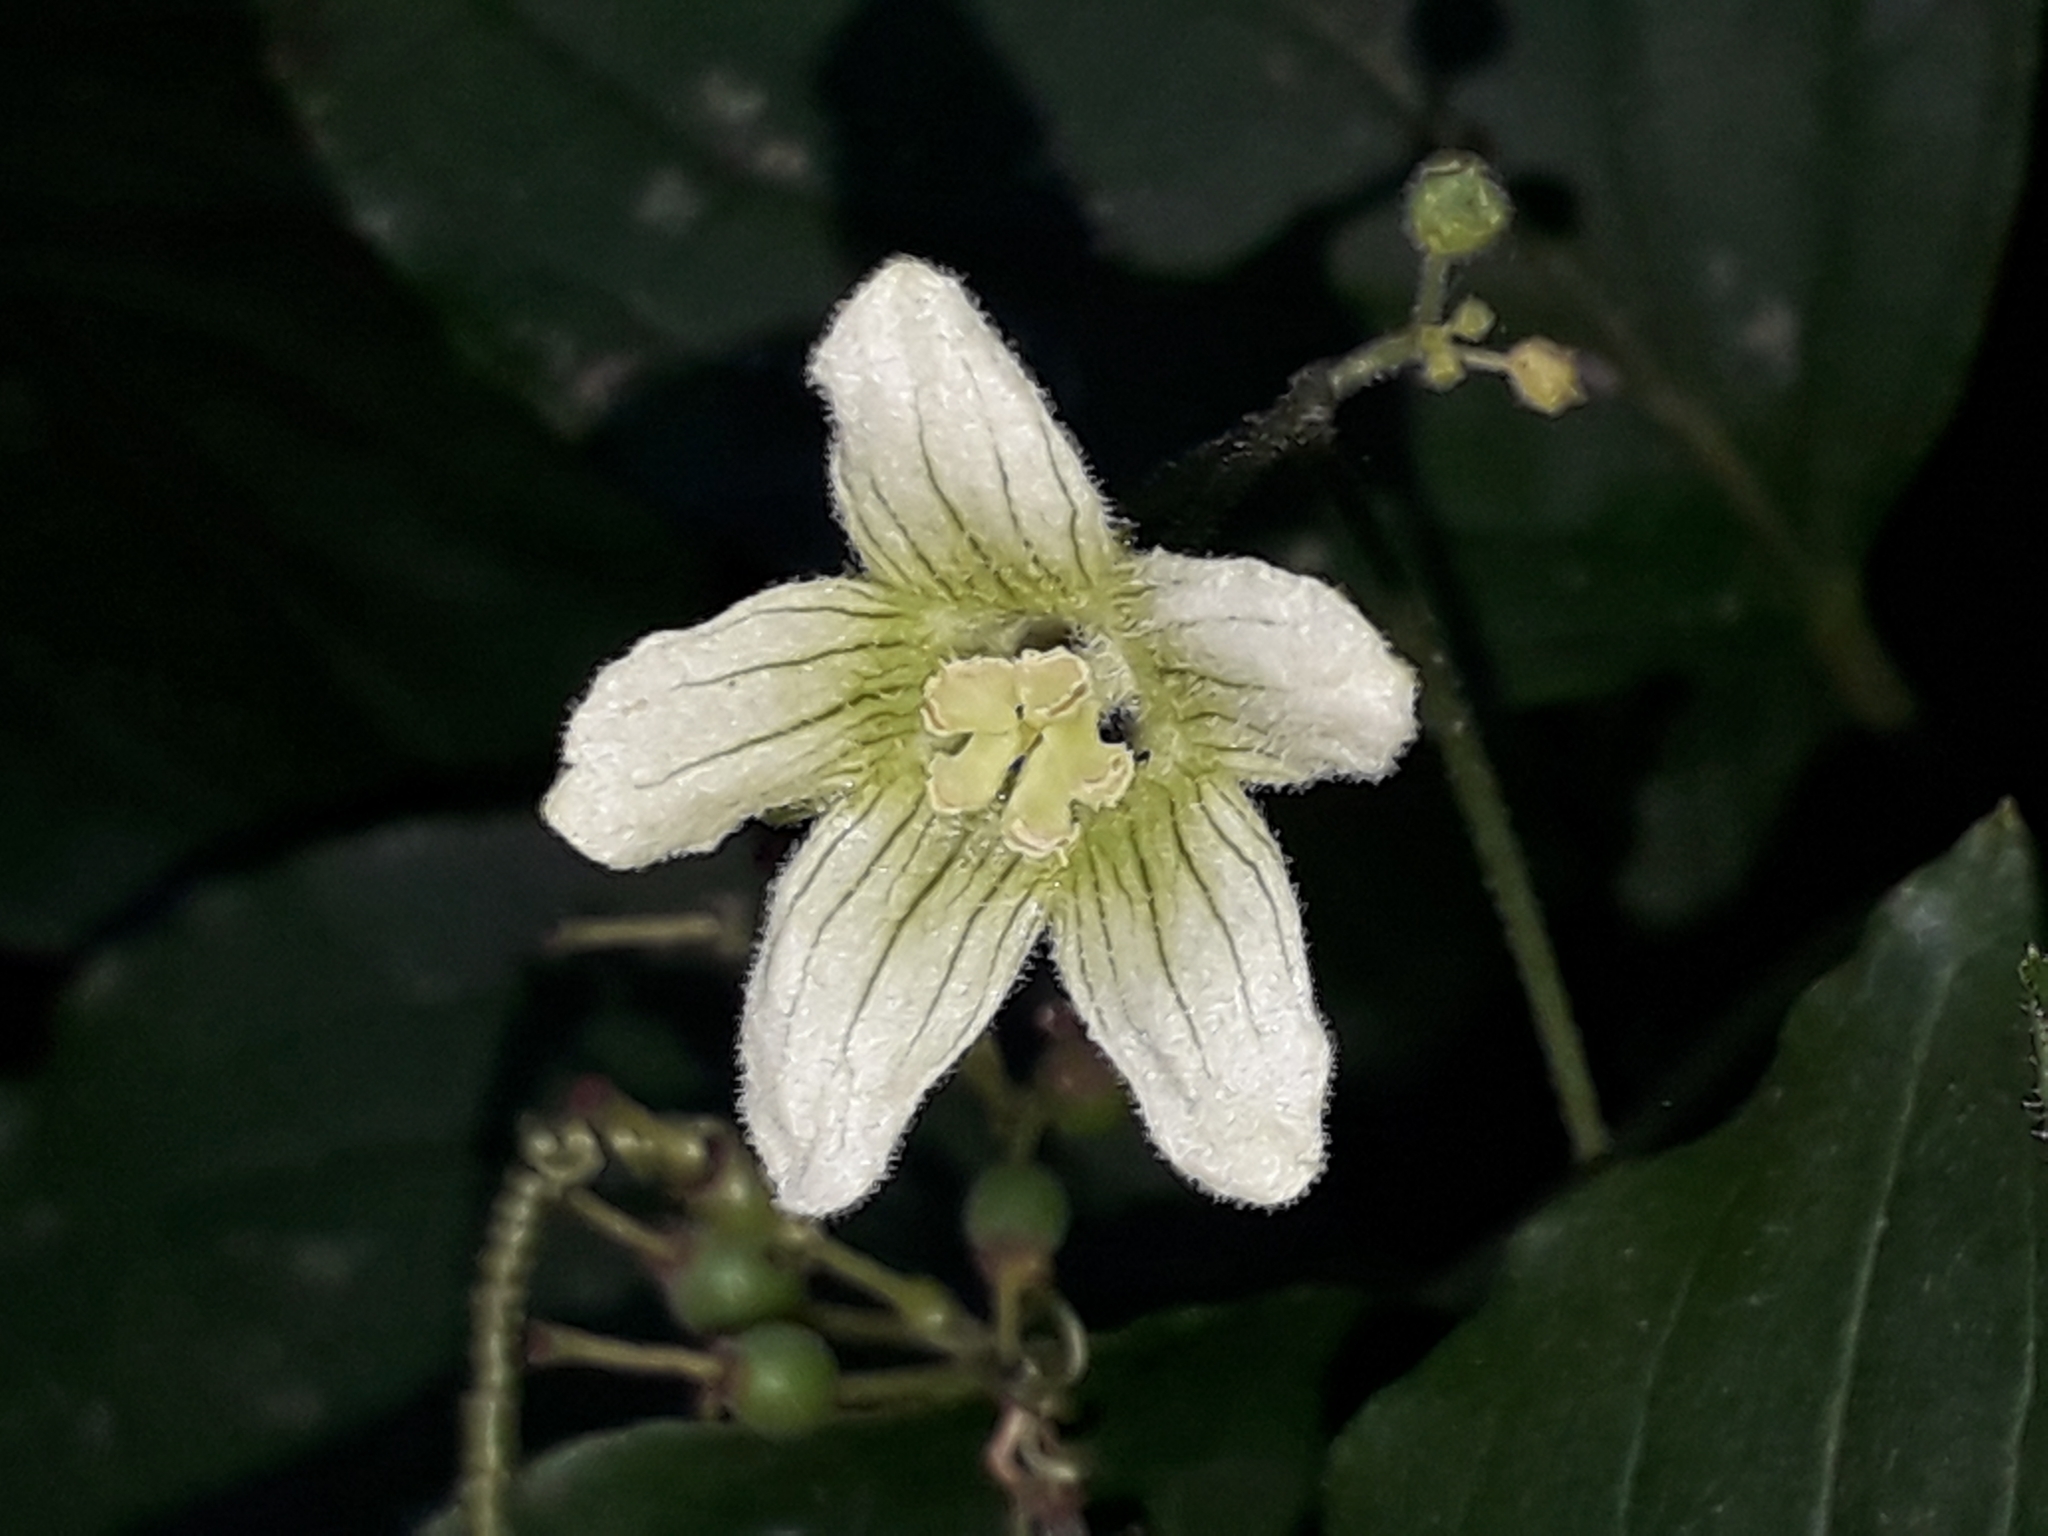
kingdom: Plantae
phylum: Tracheophyta
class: Magnoliopsida
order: Cucurbitales
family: Cucurbitaceae
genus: Bryonia
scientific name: Bryonia cretica
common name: Cretan bryony
